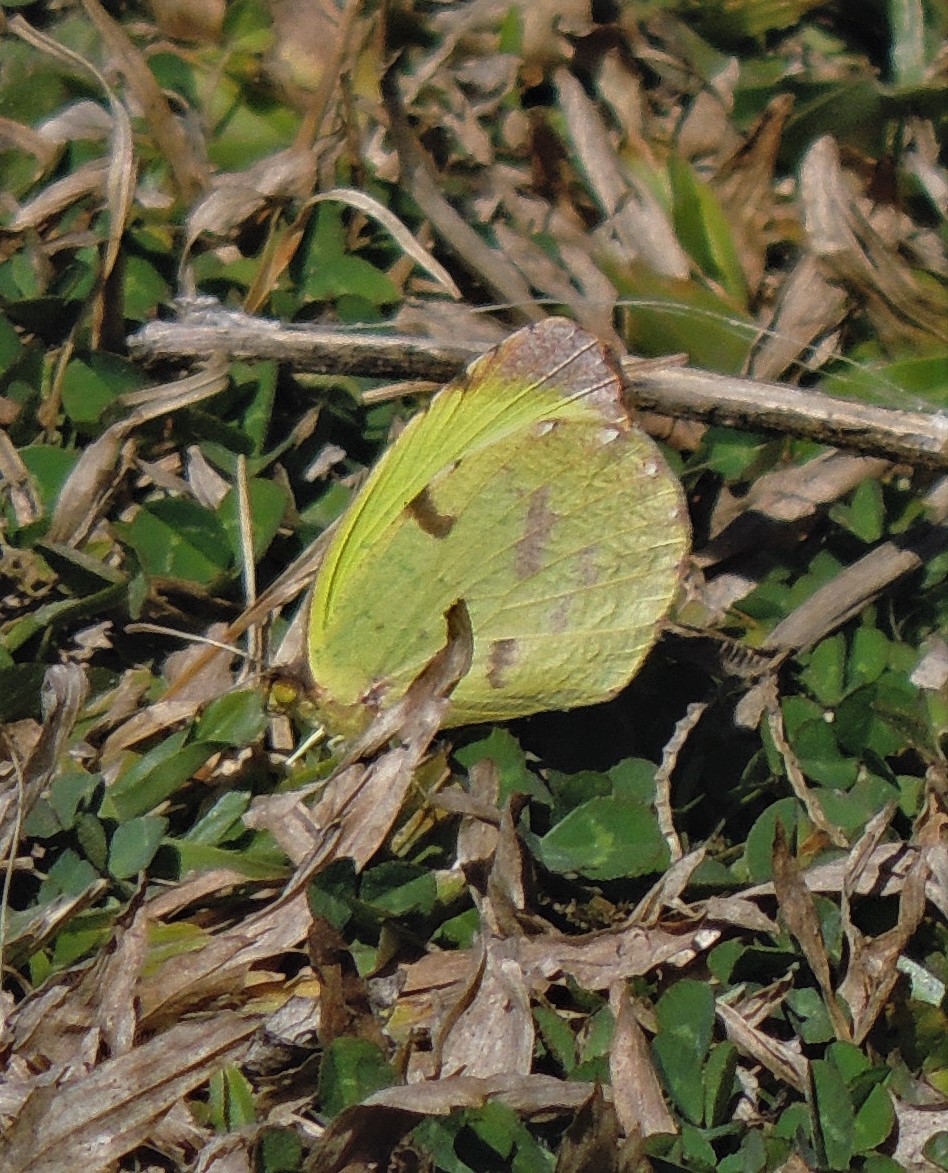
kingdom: Animalia
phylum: Arthropoda
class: Insecta
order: Lepidoptera
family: Pieridae
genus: Teriocolias
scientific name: Teriocolias
